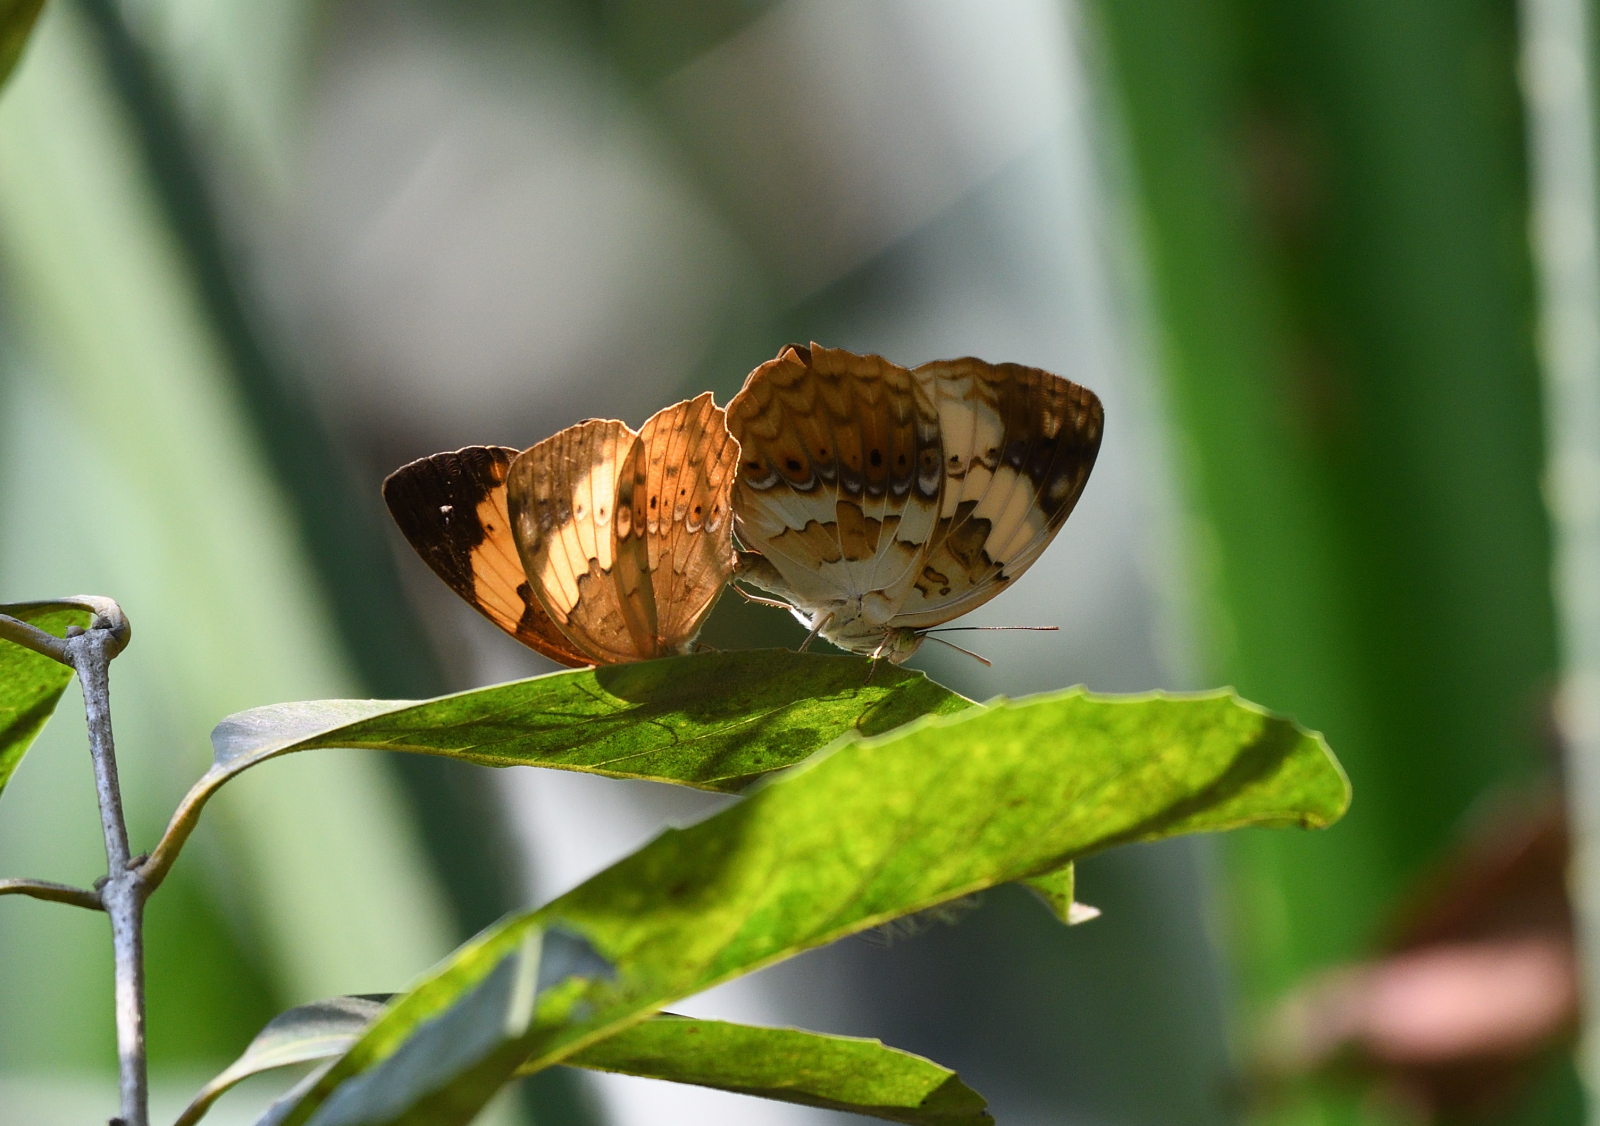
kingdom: Animalia
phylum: Arthropoda
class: Insecta
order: Lepidoptera
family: Nymphalidae
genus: Cupha
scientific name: Cupha erymanthis
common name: Rustic
